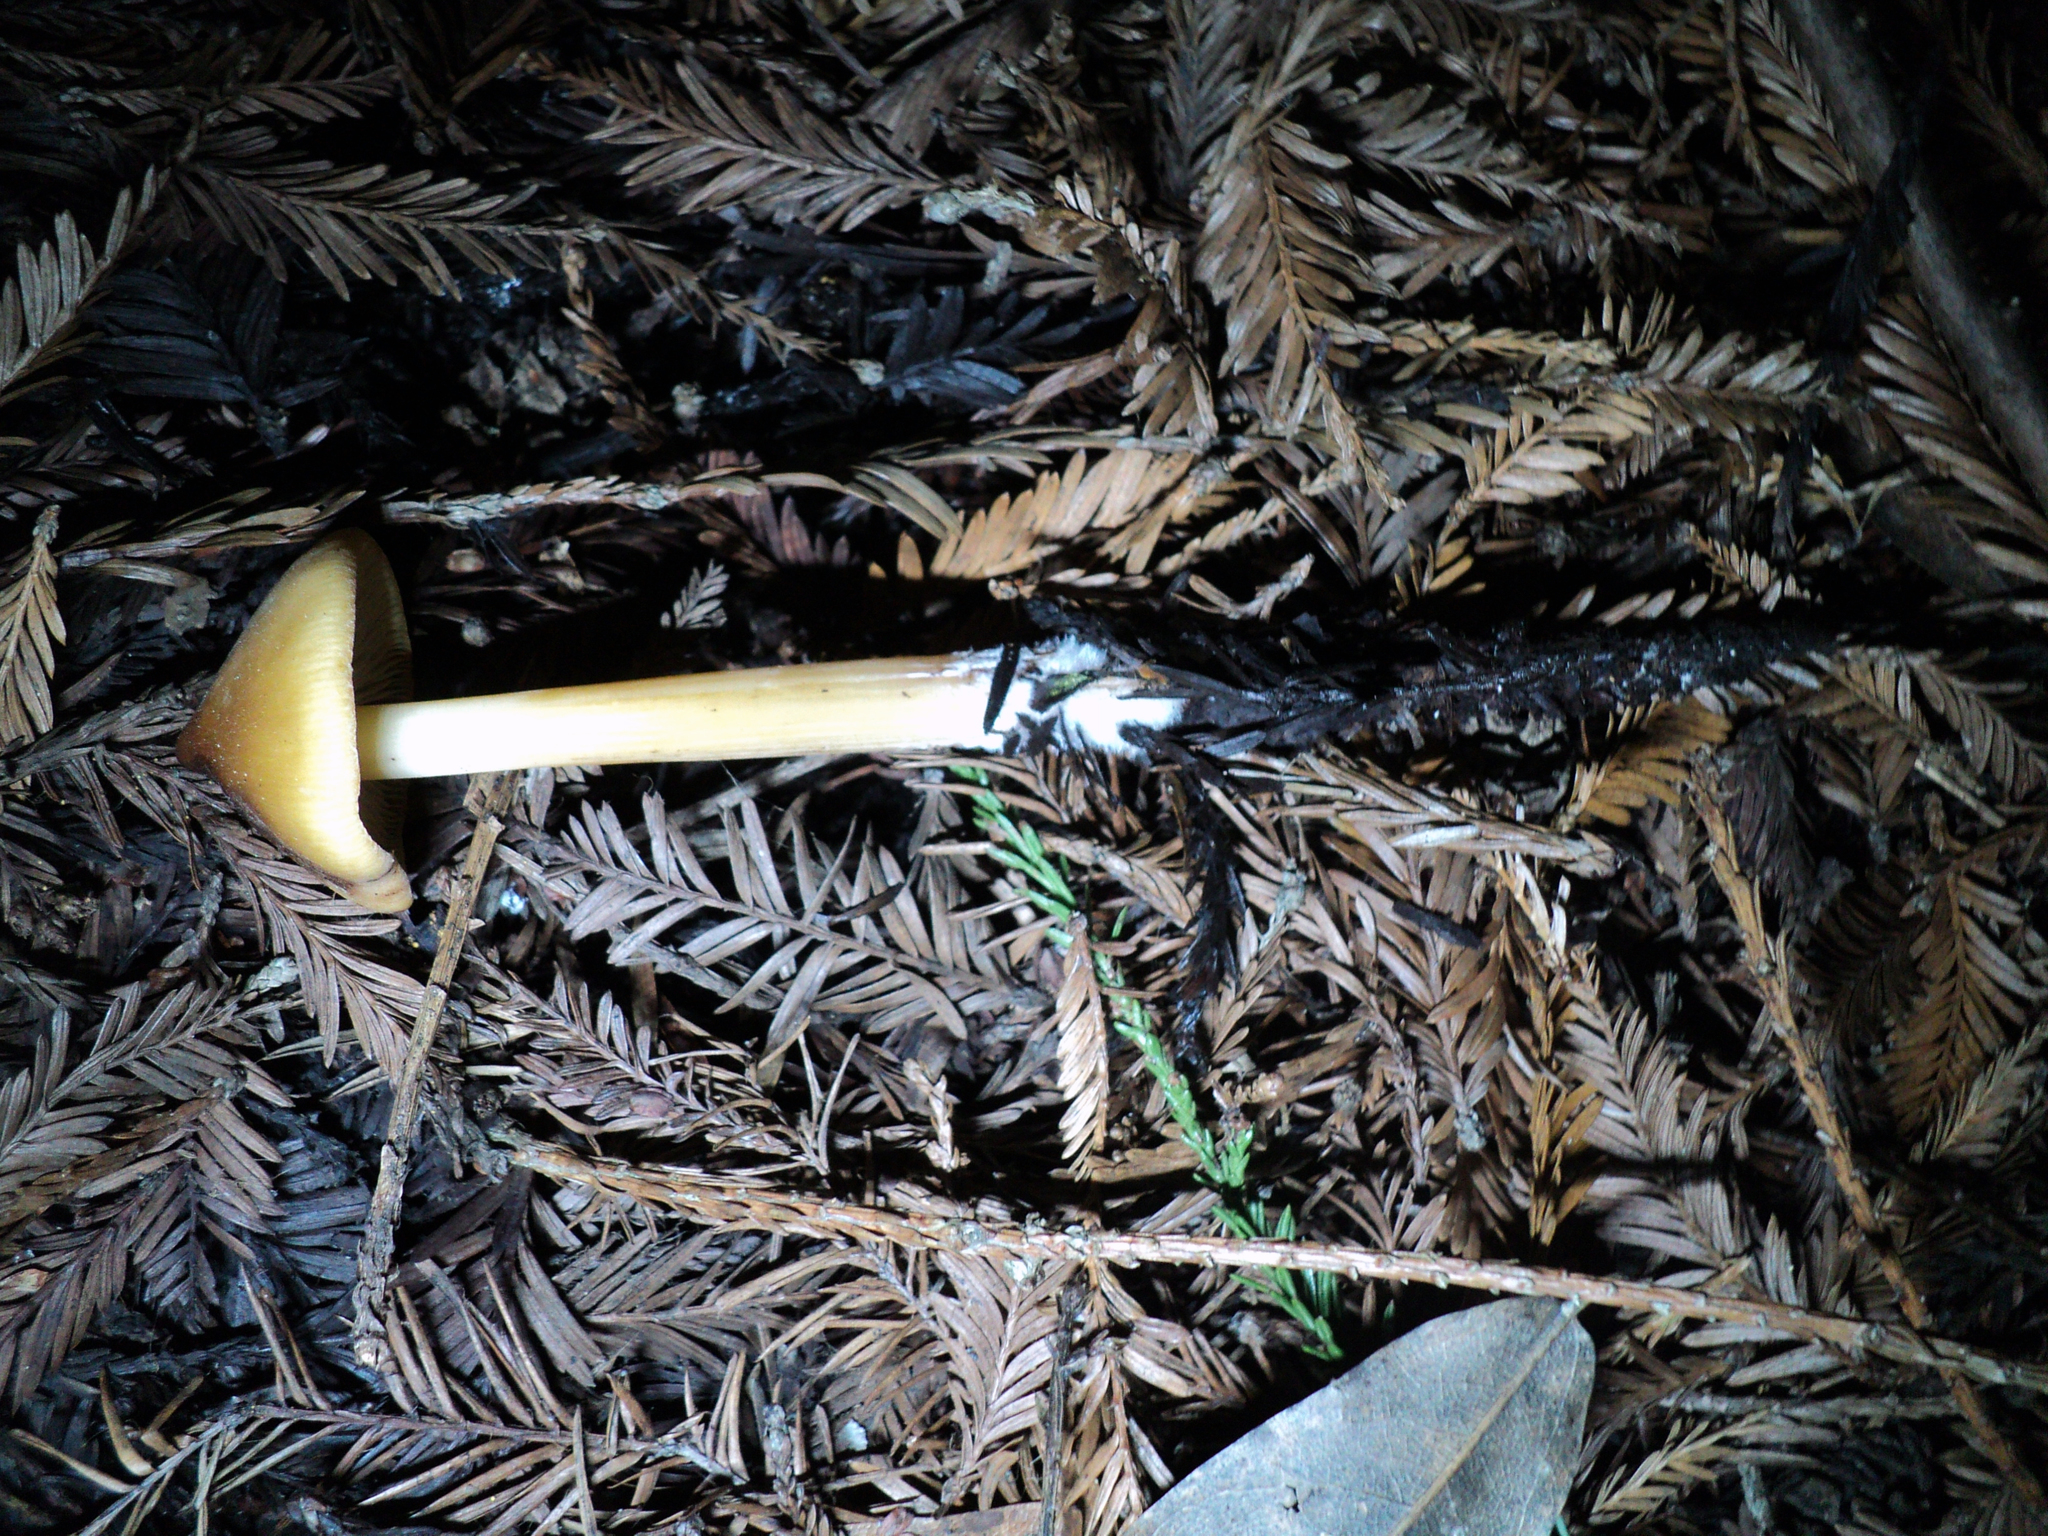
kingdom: Fungi
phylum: Basidiomycota
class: Agaricomycetes
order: Agaricales
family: Tricholomataceae
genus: Caulorhiza
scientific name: Caulorhiza umbonata
